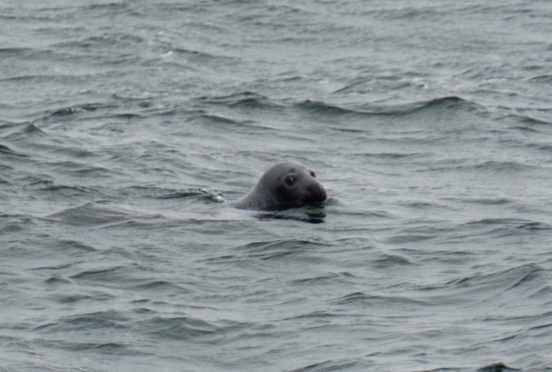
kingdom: Animalia
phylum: Chordata
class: Mammalia
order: Carnivora
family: Phocidae
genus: Halichoerus
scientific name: Halichoerus grypus
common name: Grey seal
